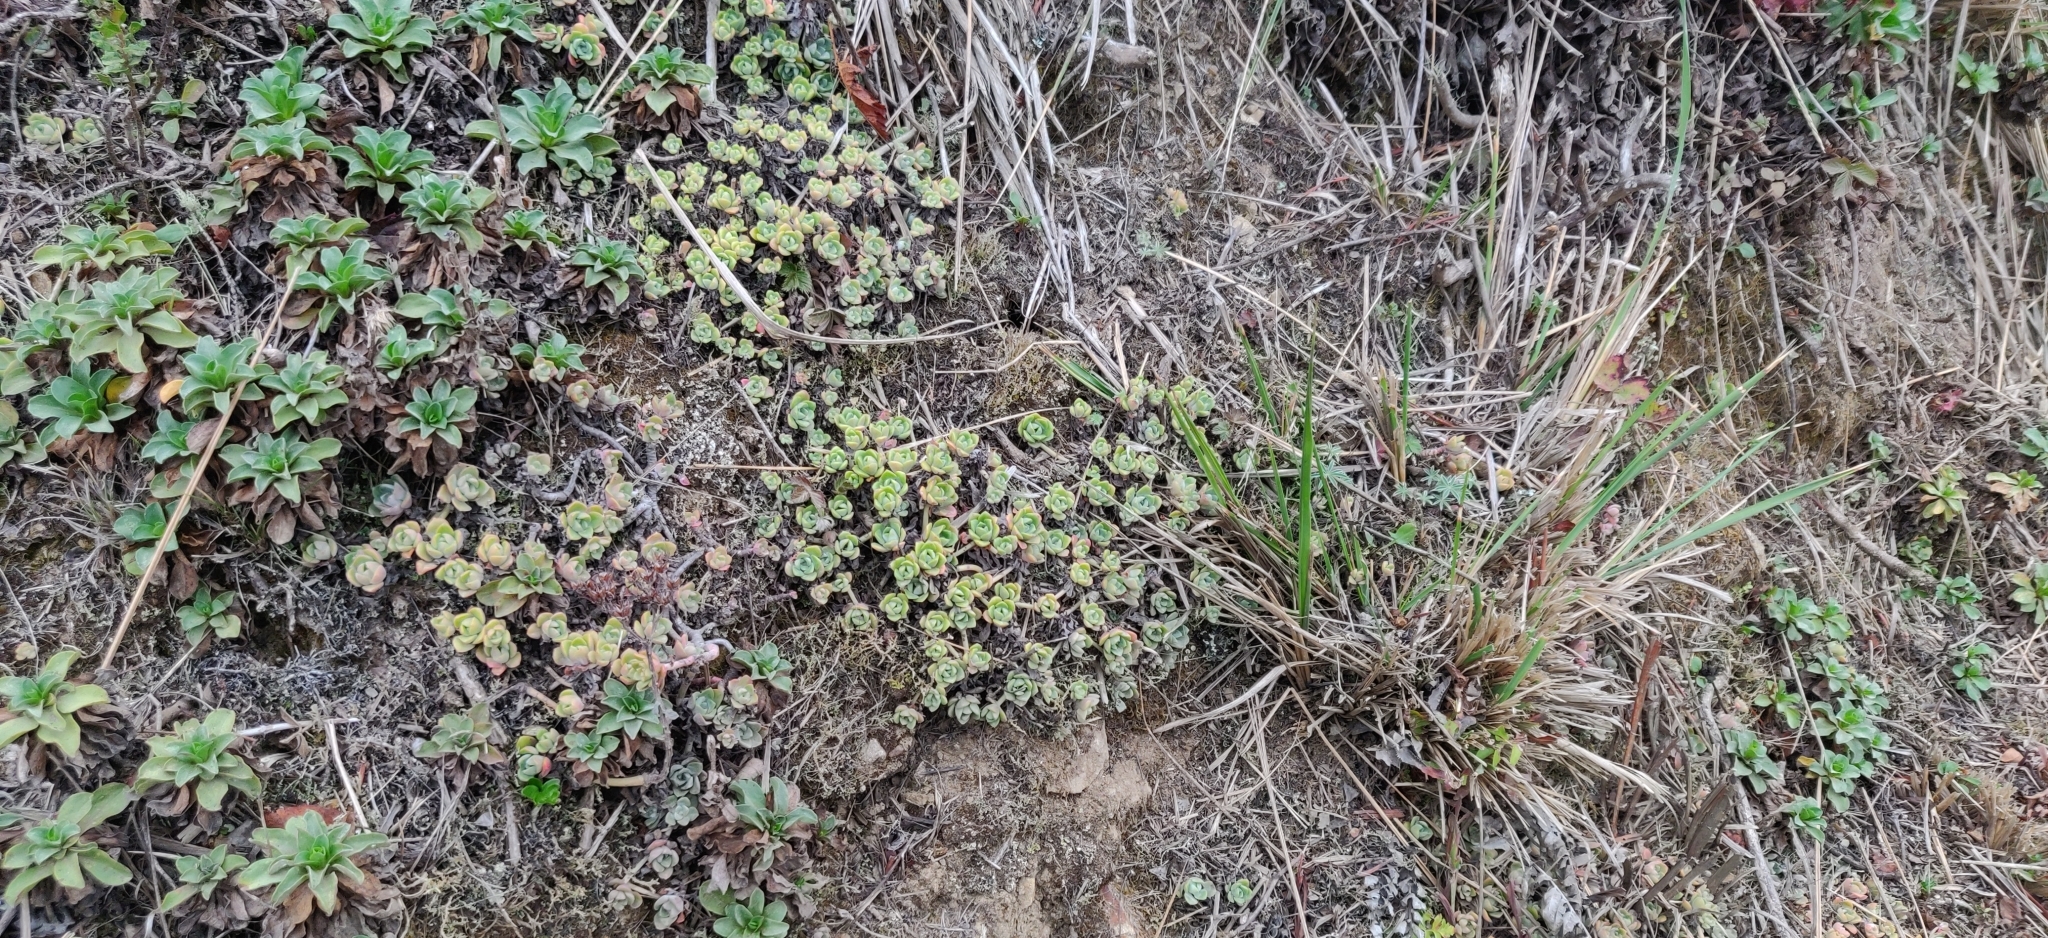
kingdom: Plantae
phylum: Tracheophyta
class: Magnoliopsida
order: Saxifragales
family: Crassulaceae
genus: Sedum
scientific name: Sedum spathulifolium
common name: Colorado stonecrop
